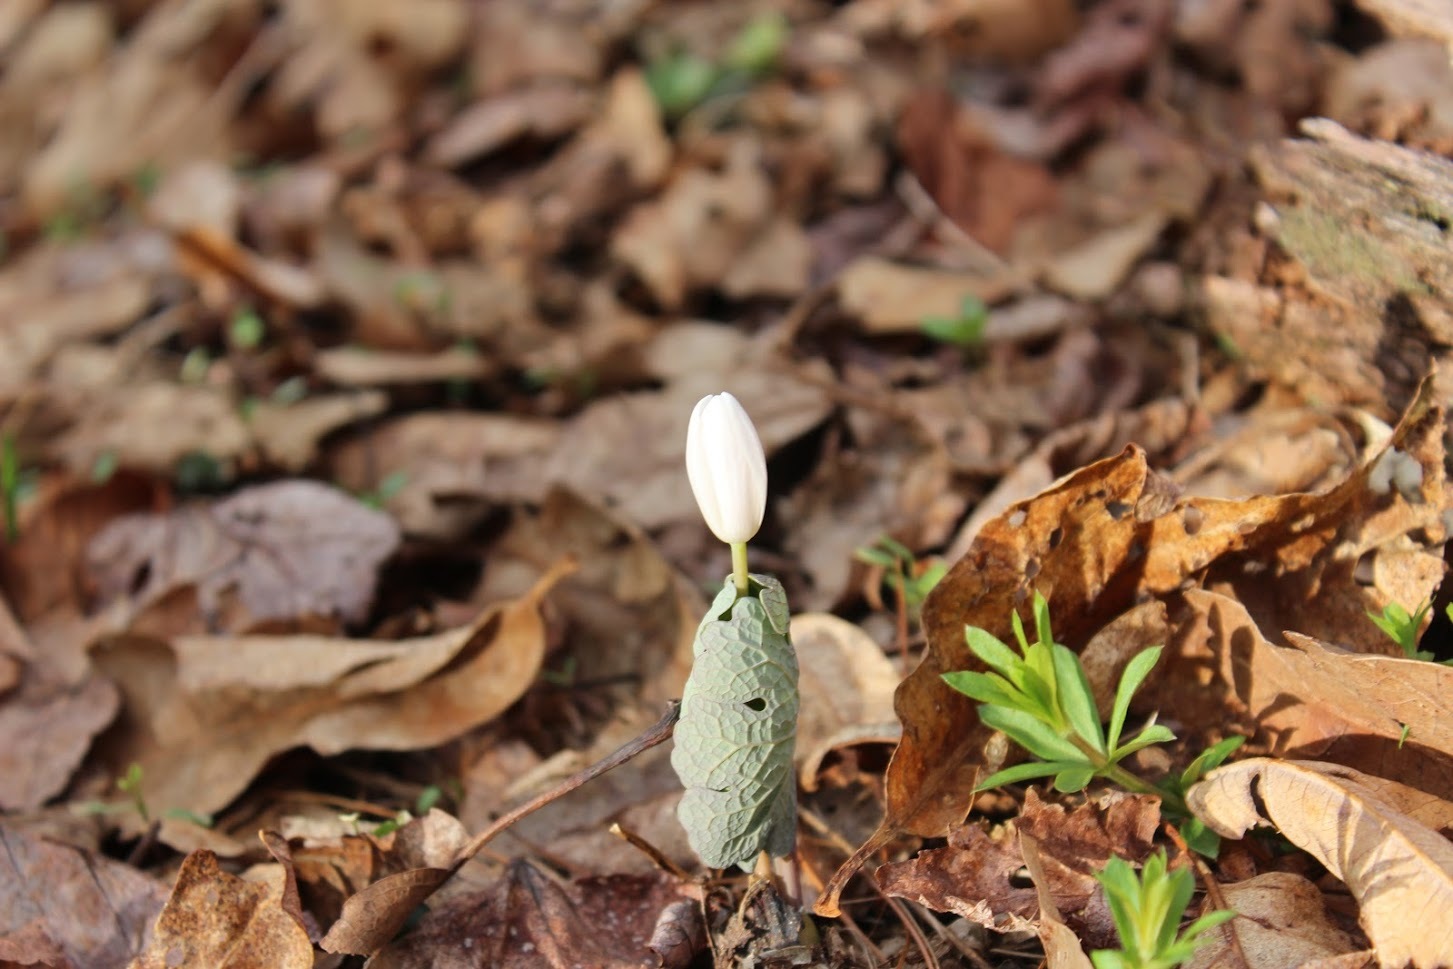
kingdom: Plantae
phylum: Tracheophyta
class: Magnoliopsida
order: Ranunculales
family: Papaveraceae
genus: Sanguinaria
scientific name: Sanguinaria canadensis
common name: Bloodroot
